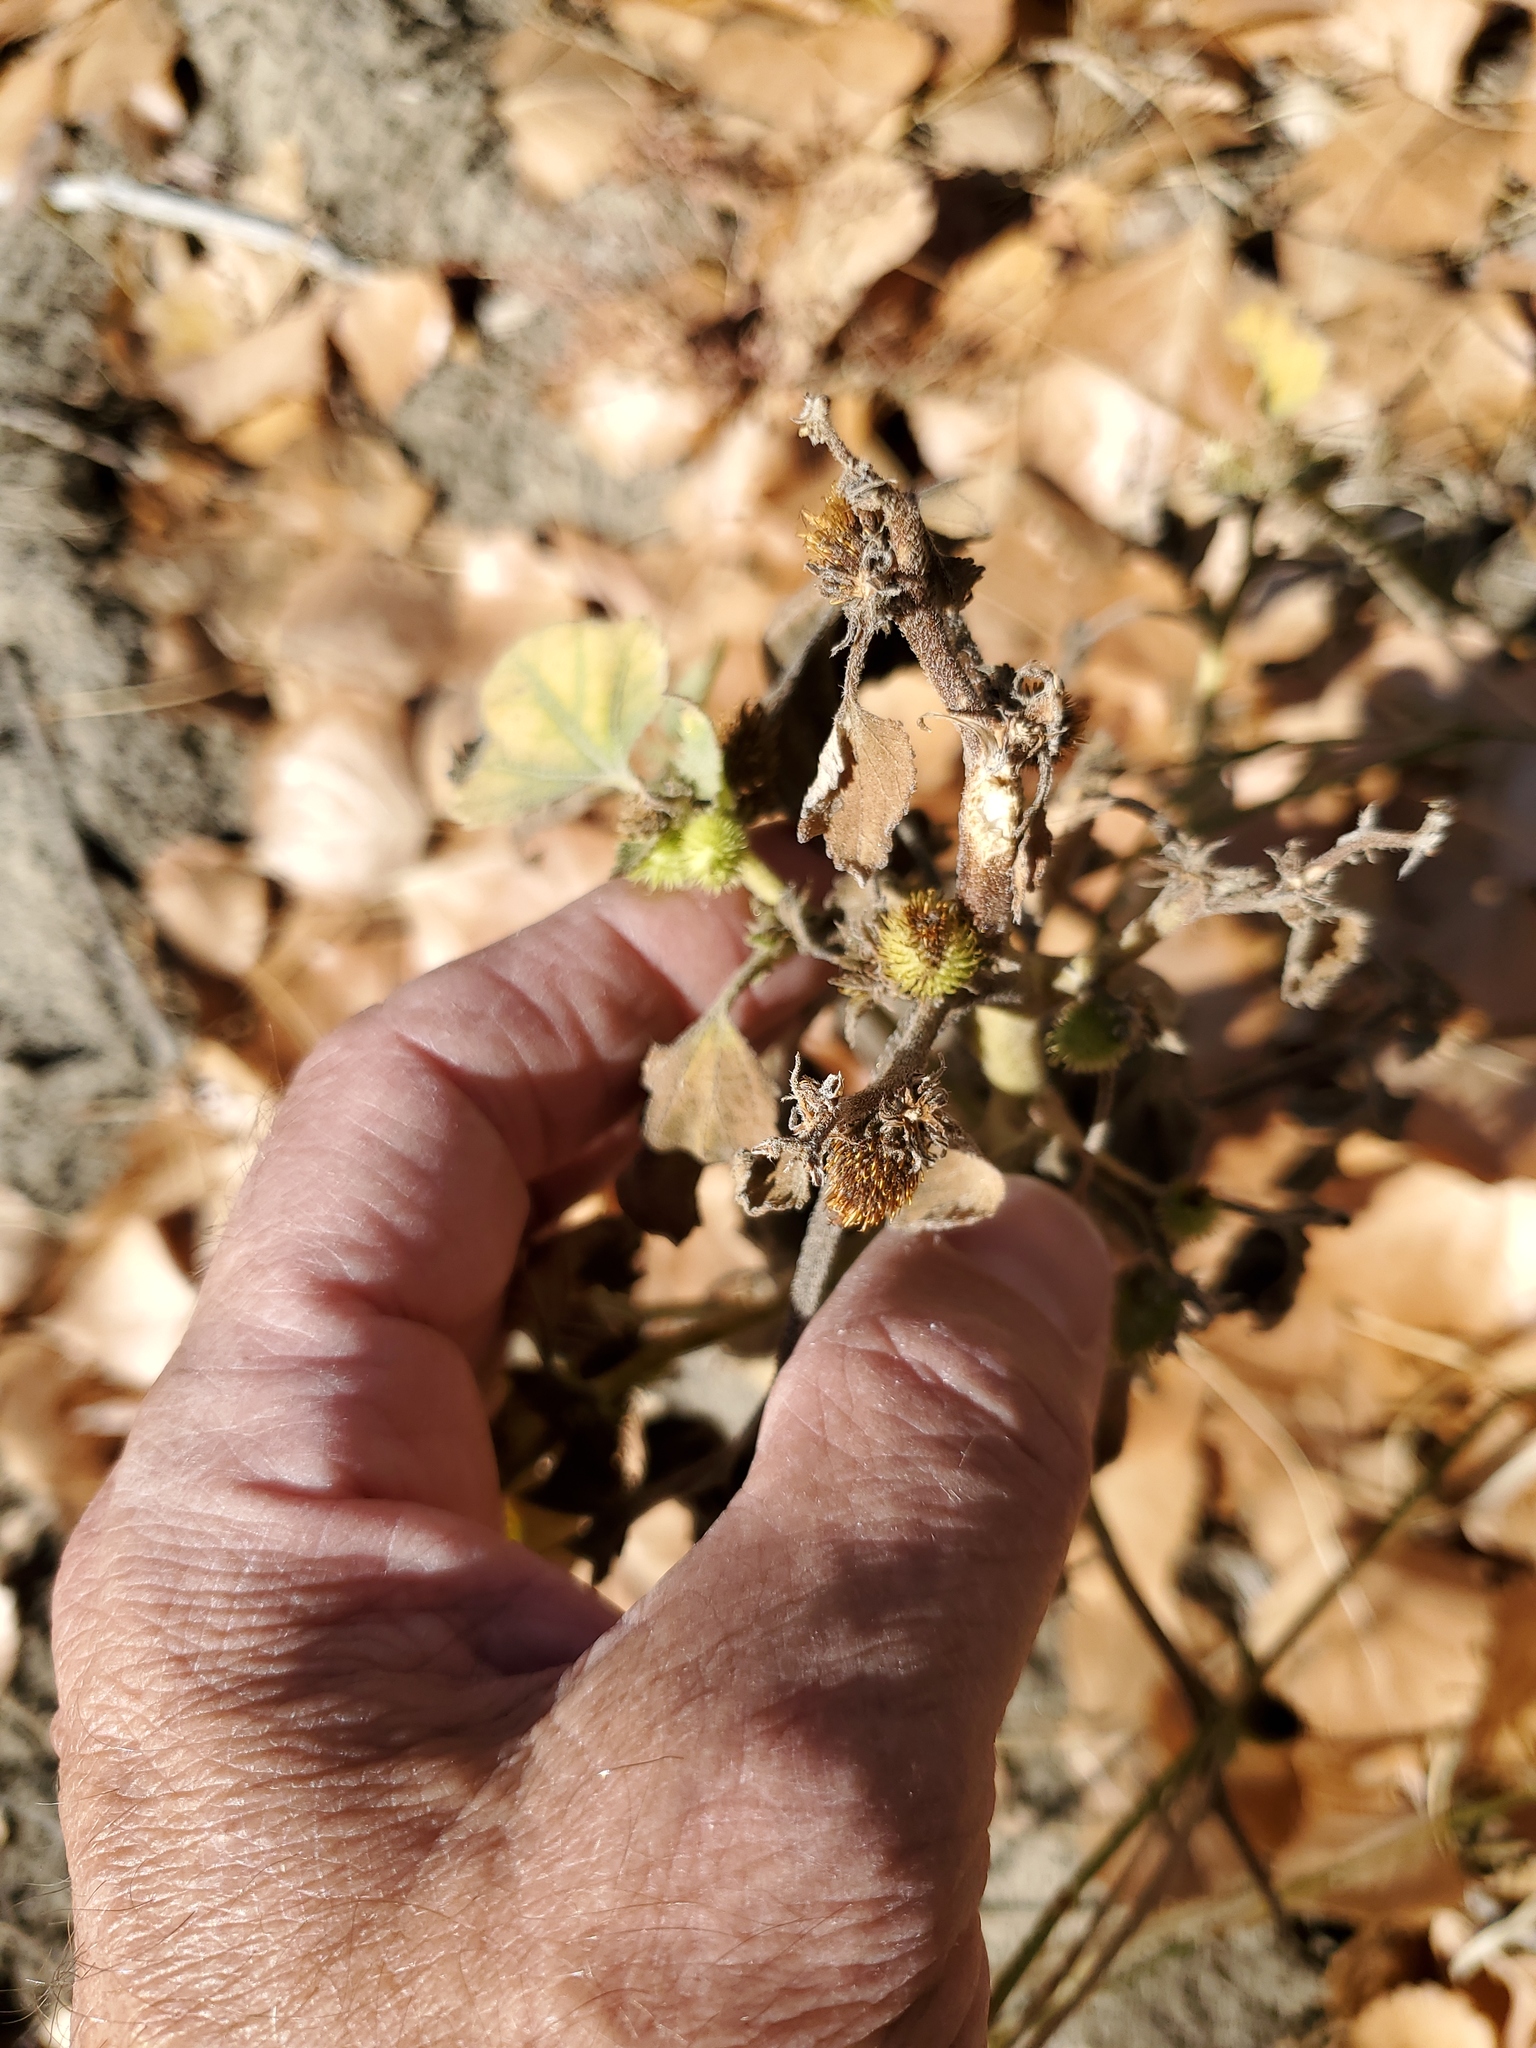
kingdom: Plantae
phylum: Tracheophyta
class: Magnoliopsida
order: Asterales
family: Asteraceae
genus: Xanthium
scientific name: Xanthium strumarium
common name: Rough cocklebur
